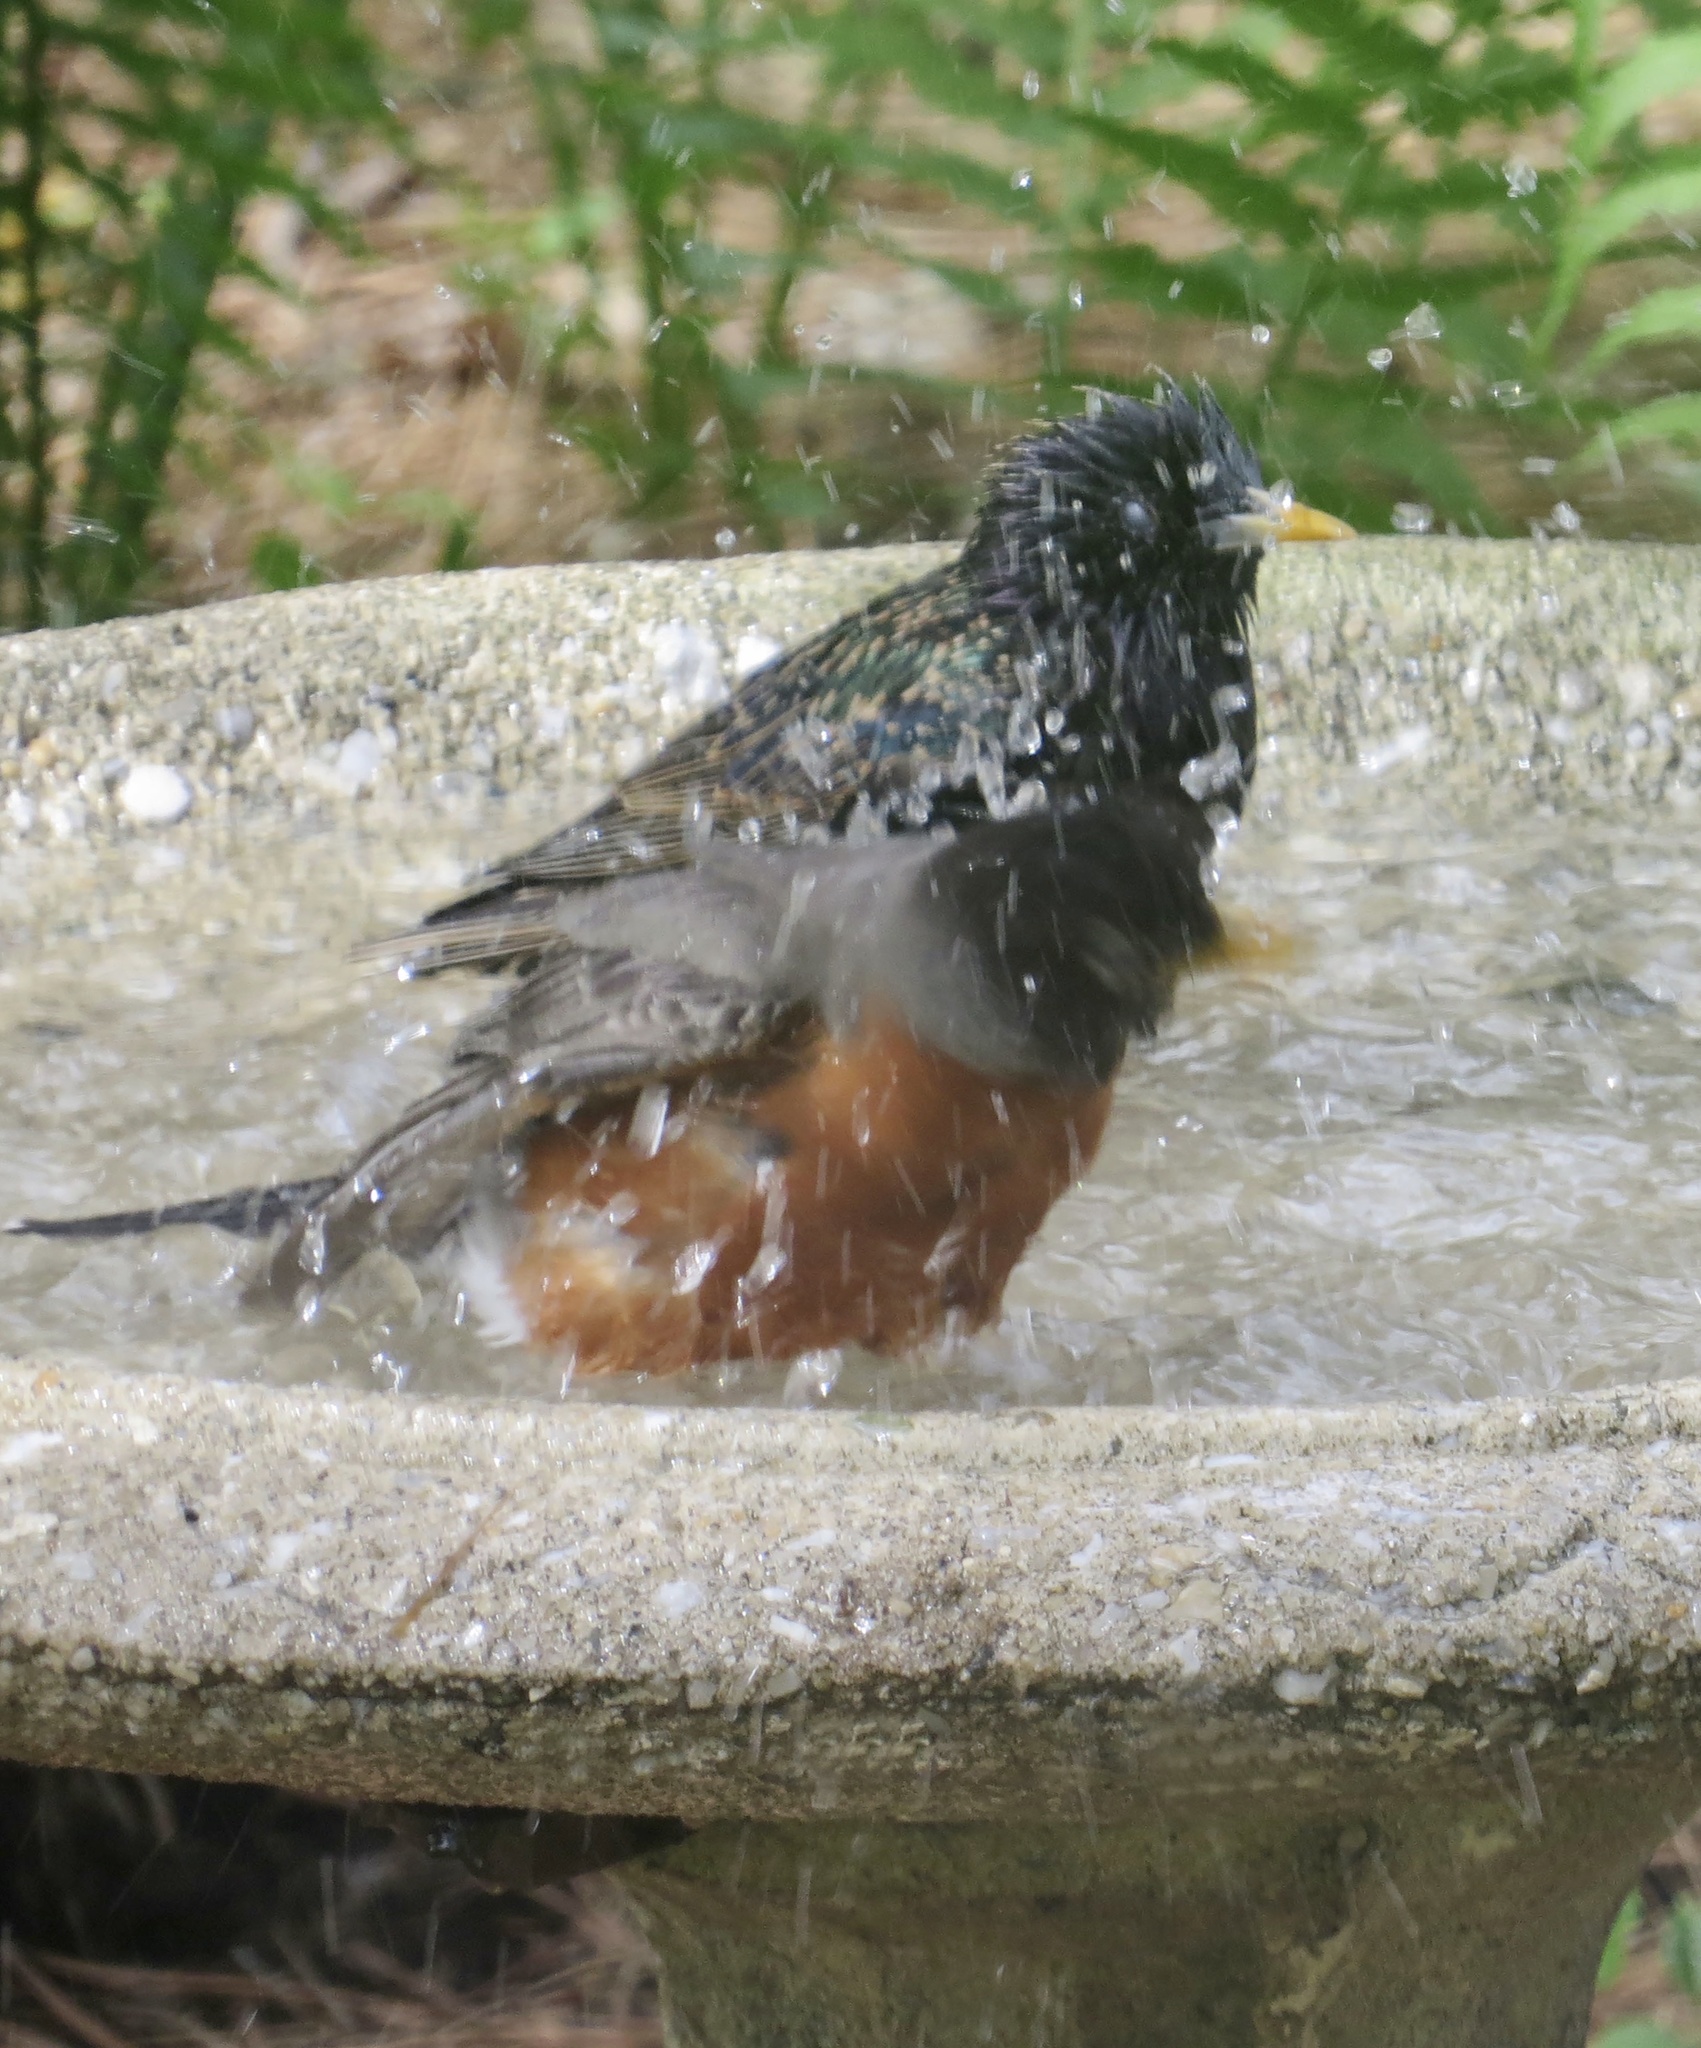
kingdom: Animalia
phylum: Chordata
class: Aves
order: Passeriformes
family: Sturnidae
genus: Sturnus
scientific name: Sturnus vulgaris
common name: Common starling
